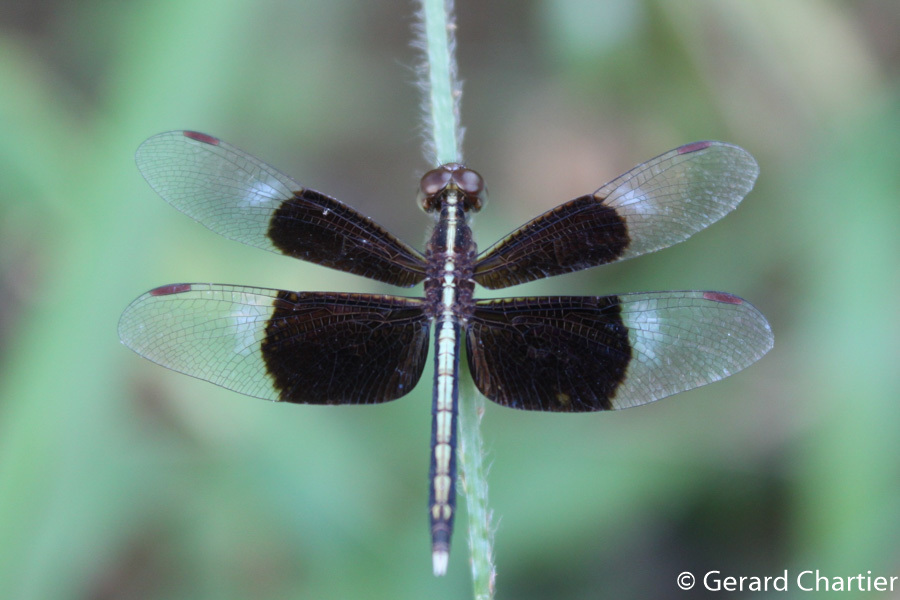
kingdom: Animalia
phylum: Arthropoda
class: Insecta
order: Odonata
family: Libellulidae
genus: Neurothemis
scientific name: Neurothemis tullia
